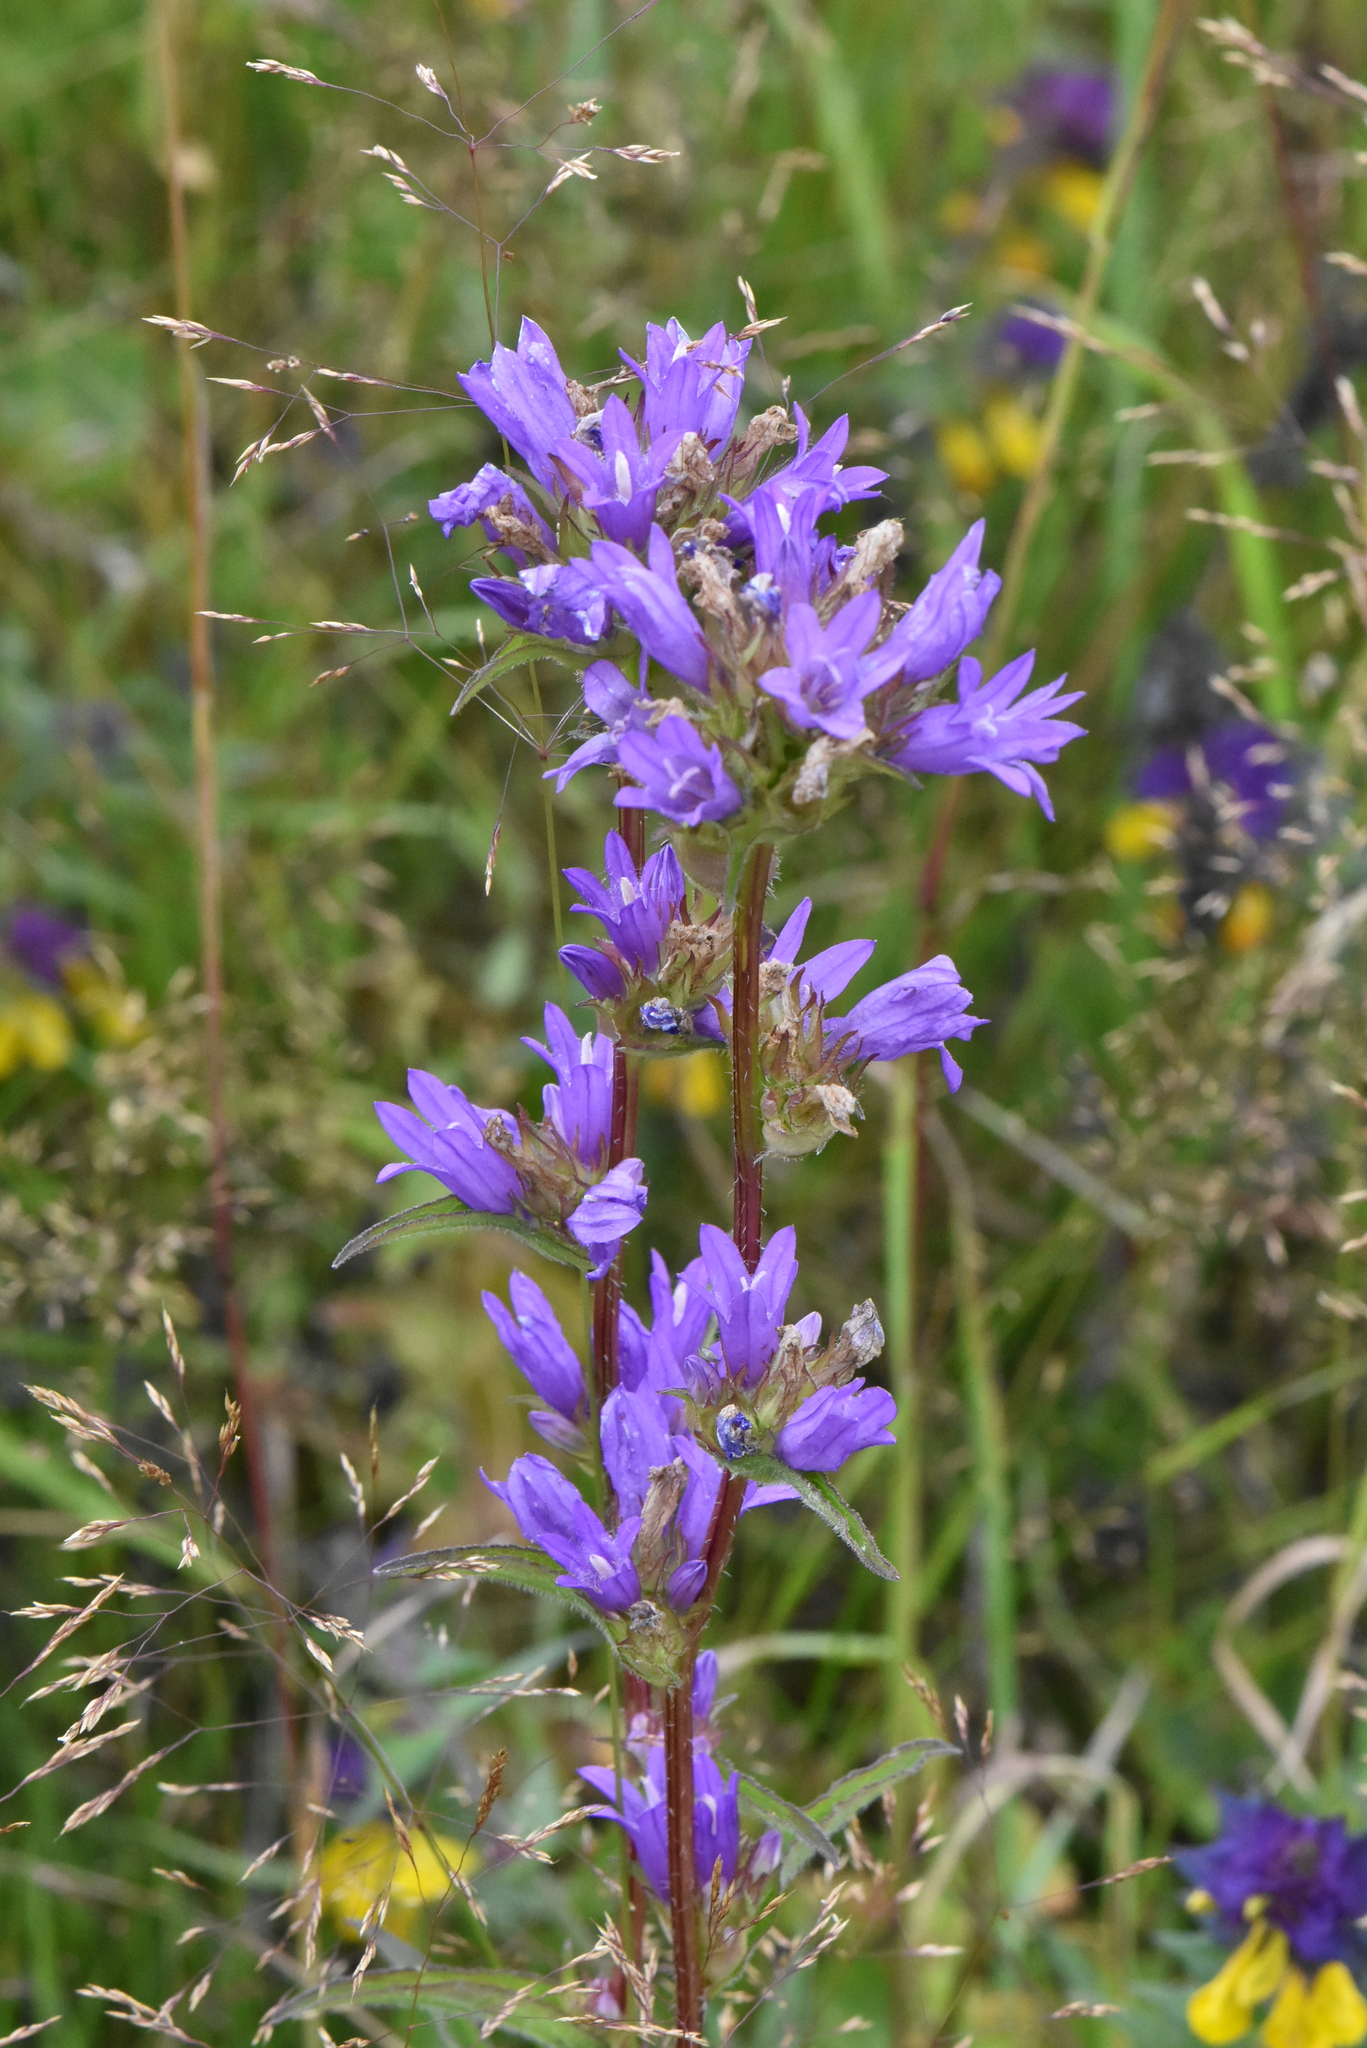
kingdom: Plantae
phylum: Tracheophyta
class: Magnoliopsida
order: Asterales
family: Campanulaceae
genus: Campanula
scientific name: Campanula glomerata
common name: Clustered bellflower
